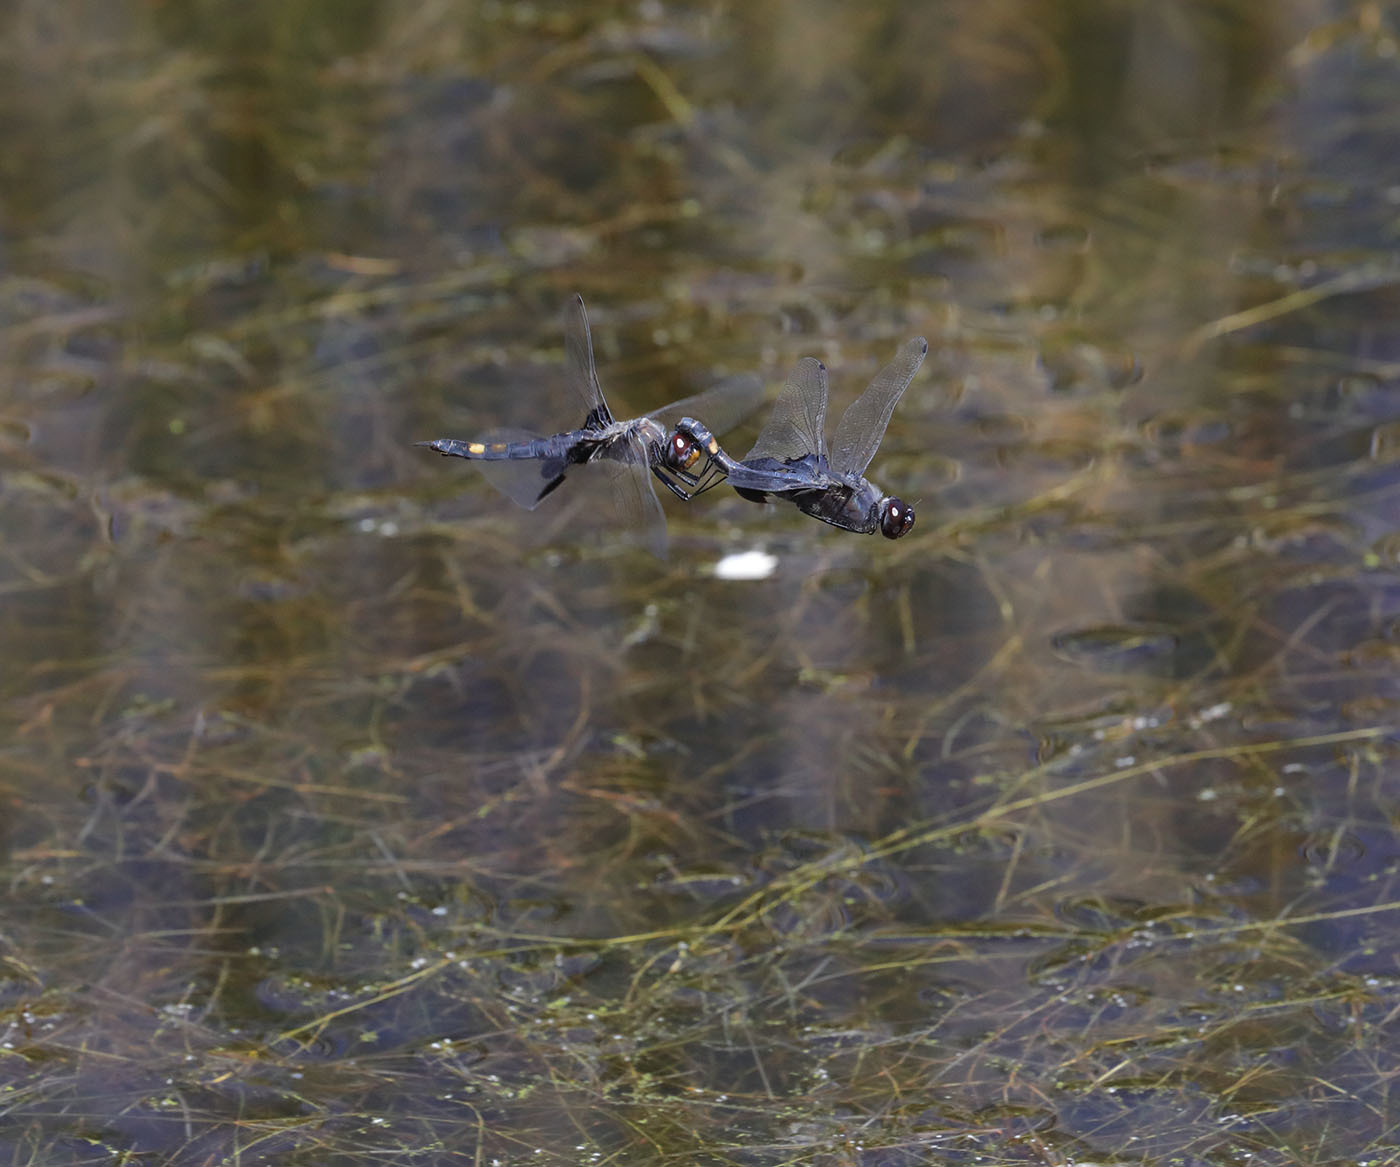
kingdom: Animalia
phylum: Arthropoda
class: Insecta
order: Odonata
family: Libellulidae
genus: Tramea
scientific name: Tramea lacerata
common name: Black saddlebags
